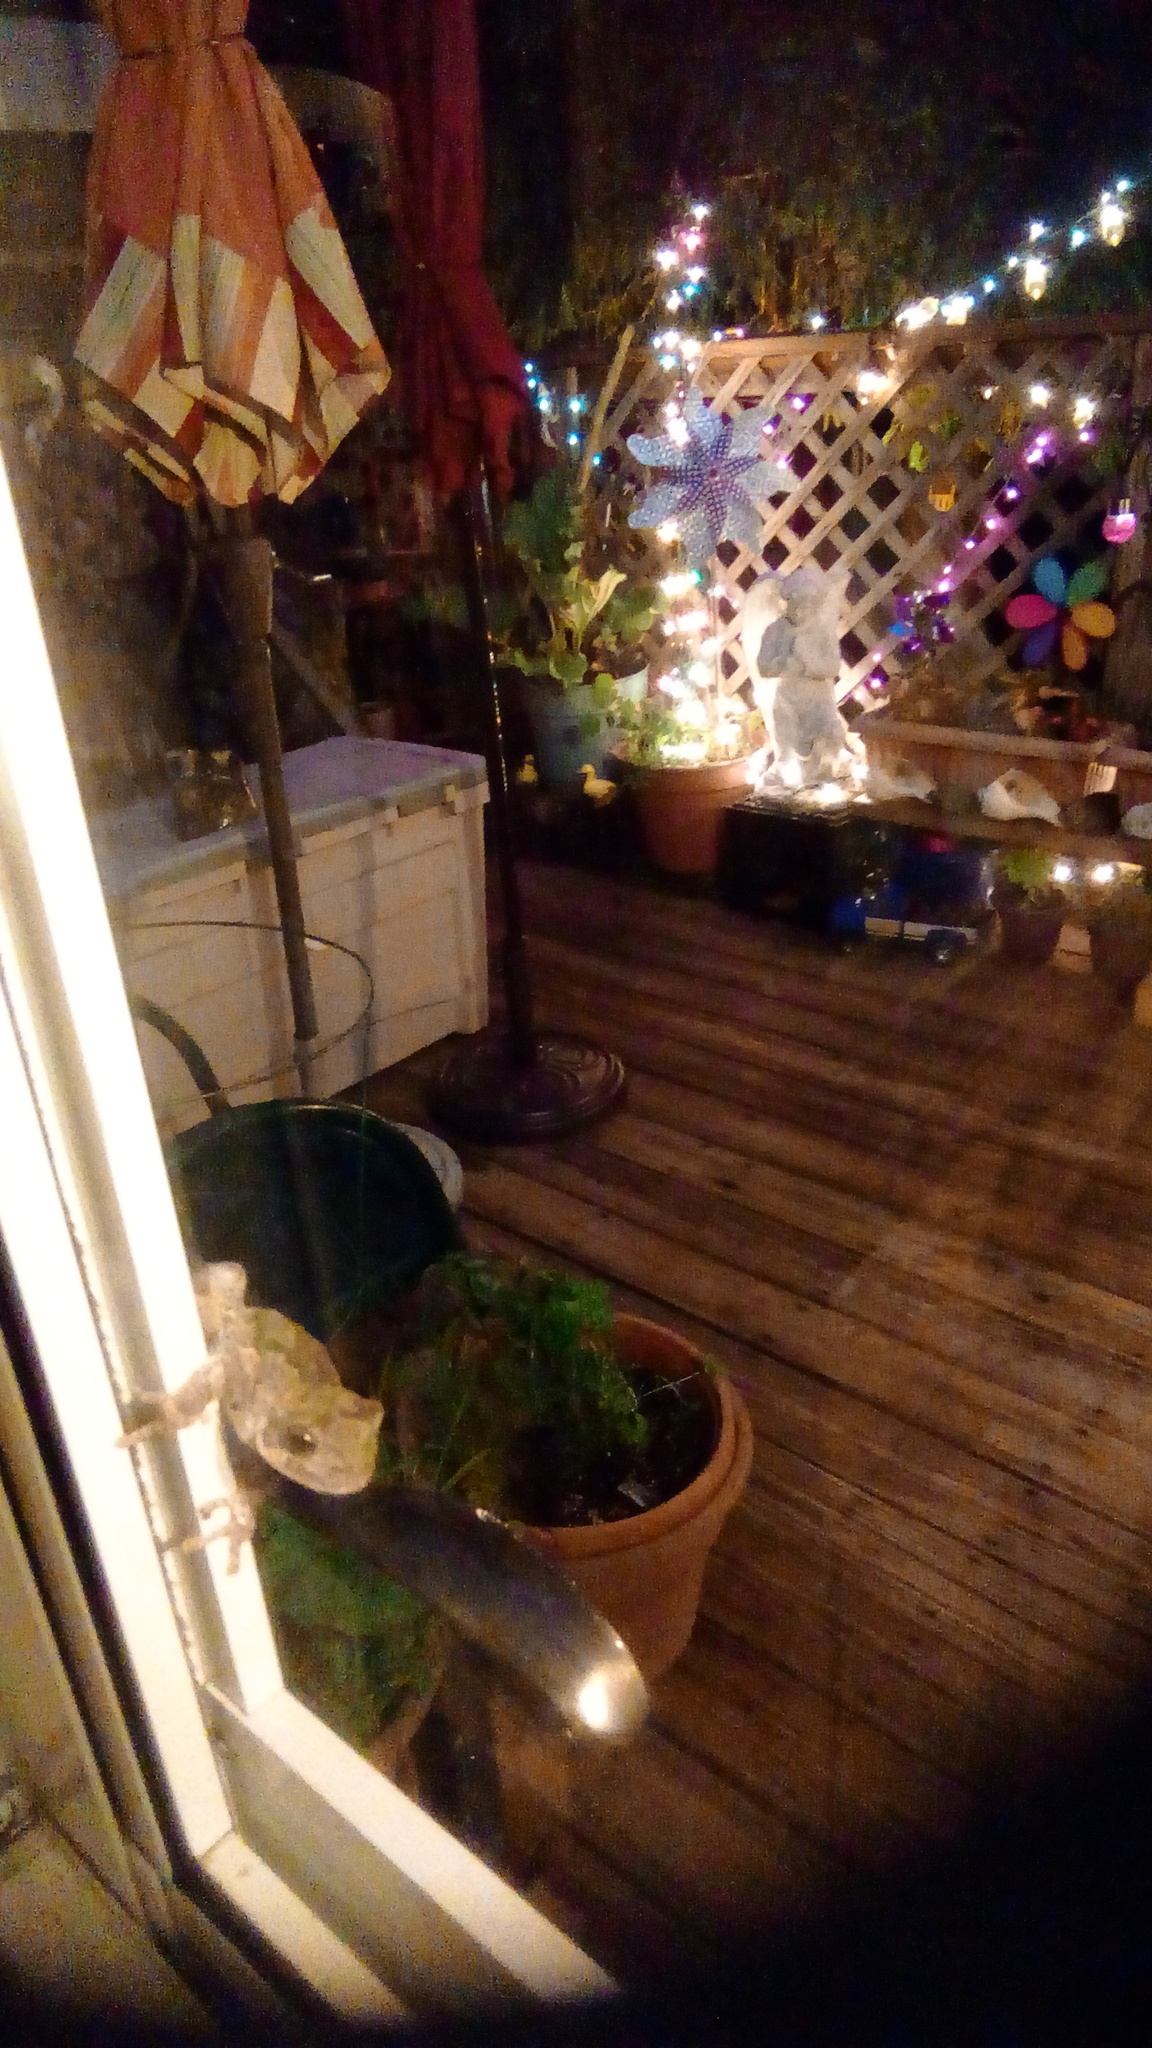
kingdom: Animalia
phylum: Chordata
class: Amphibia
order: Anura
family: Hylidae
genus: Dryophytes
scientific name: Dryophytes versicolor
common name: Gray treefrog
